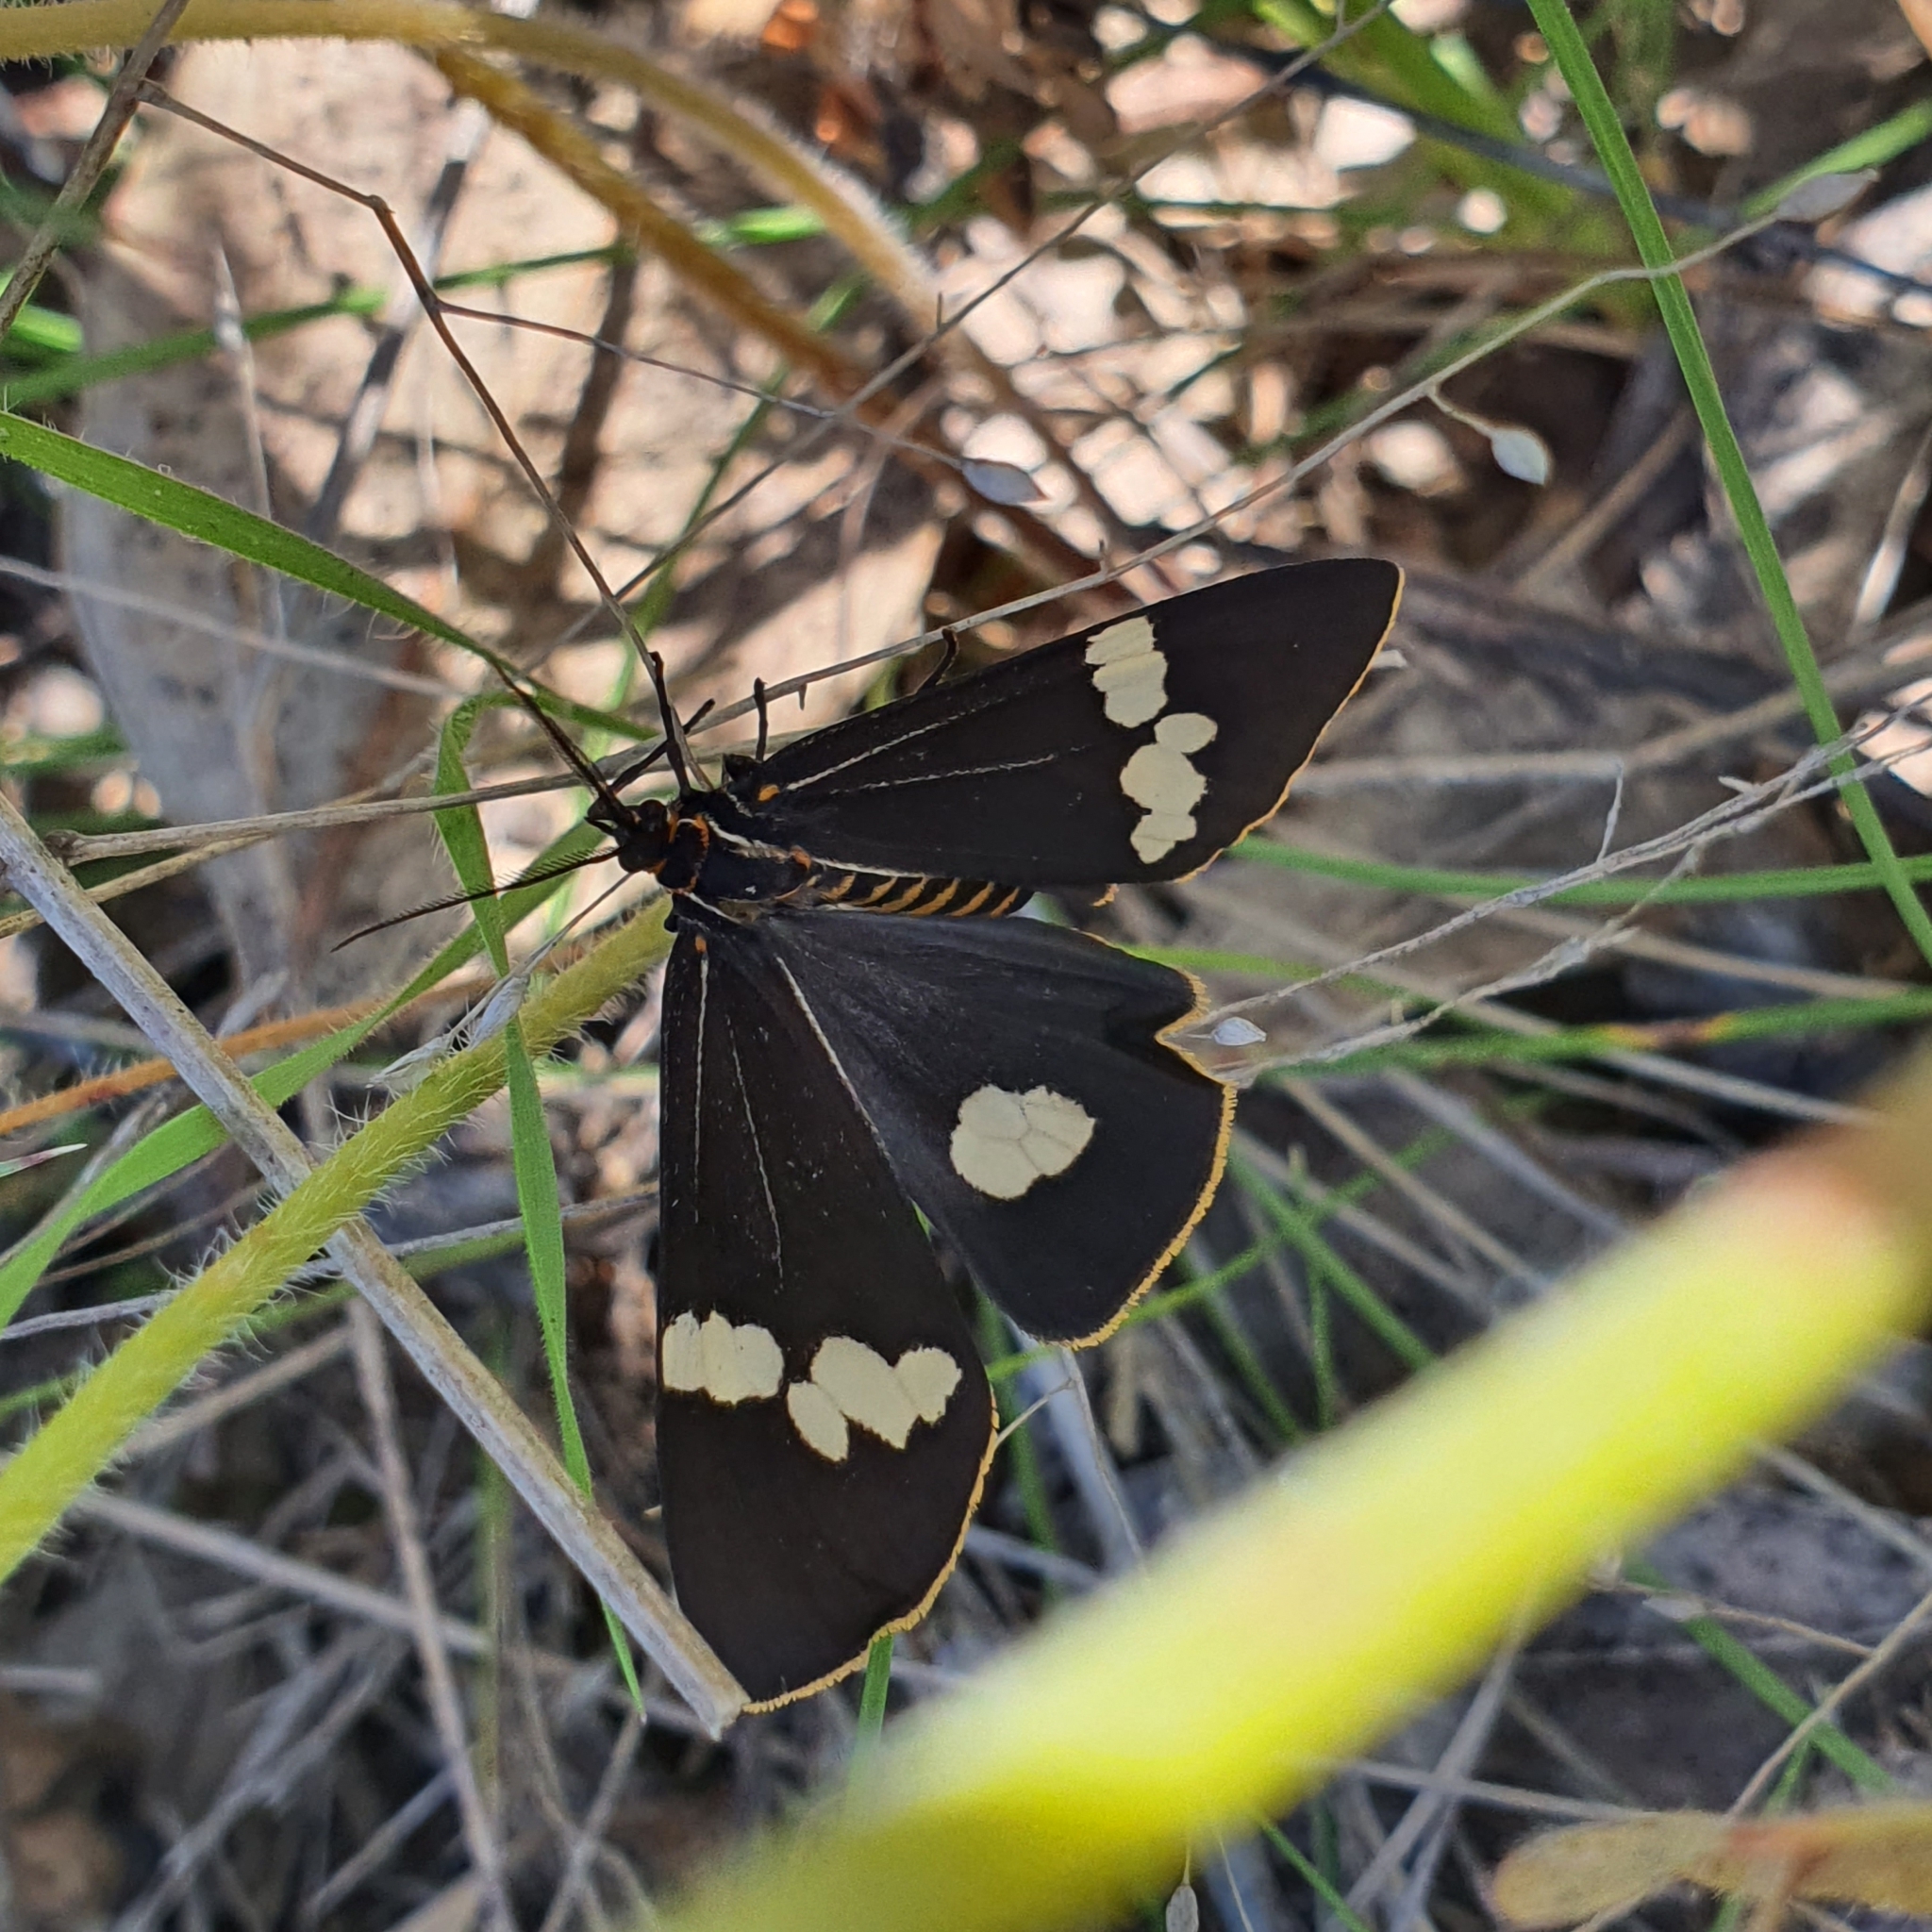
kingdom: Animalia
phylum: Arthropoda
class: Insecta
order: Lepidoptera
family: Erebidae
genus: Nyctemera
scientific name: Nyctemera amicus
